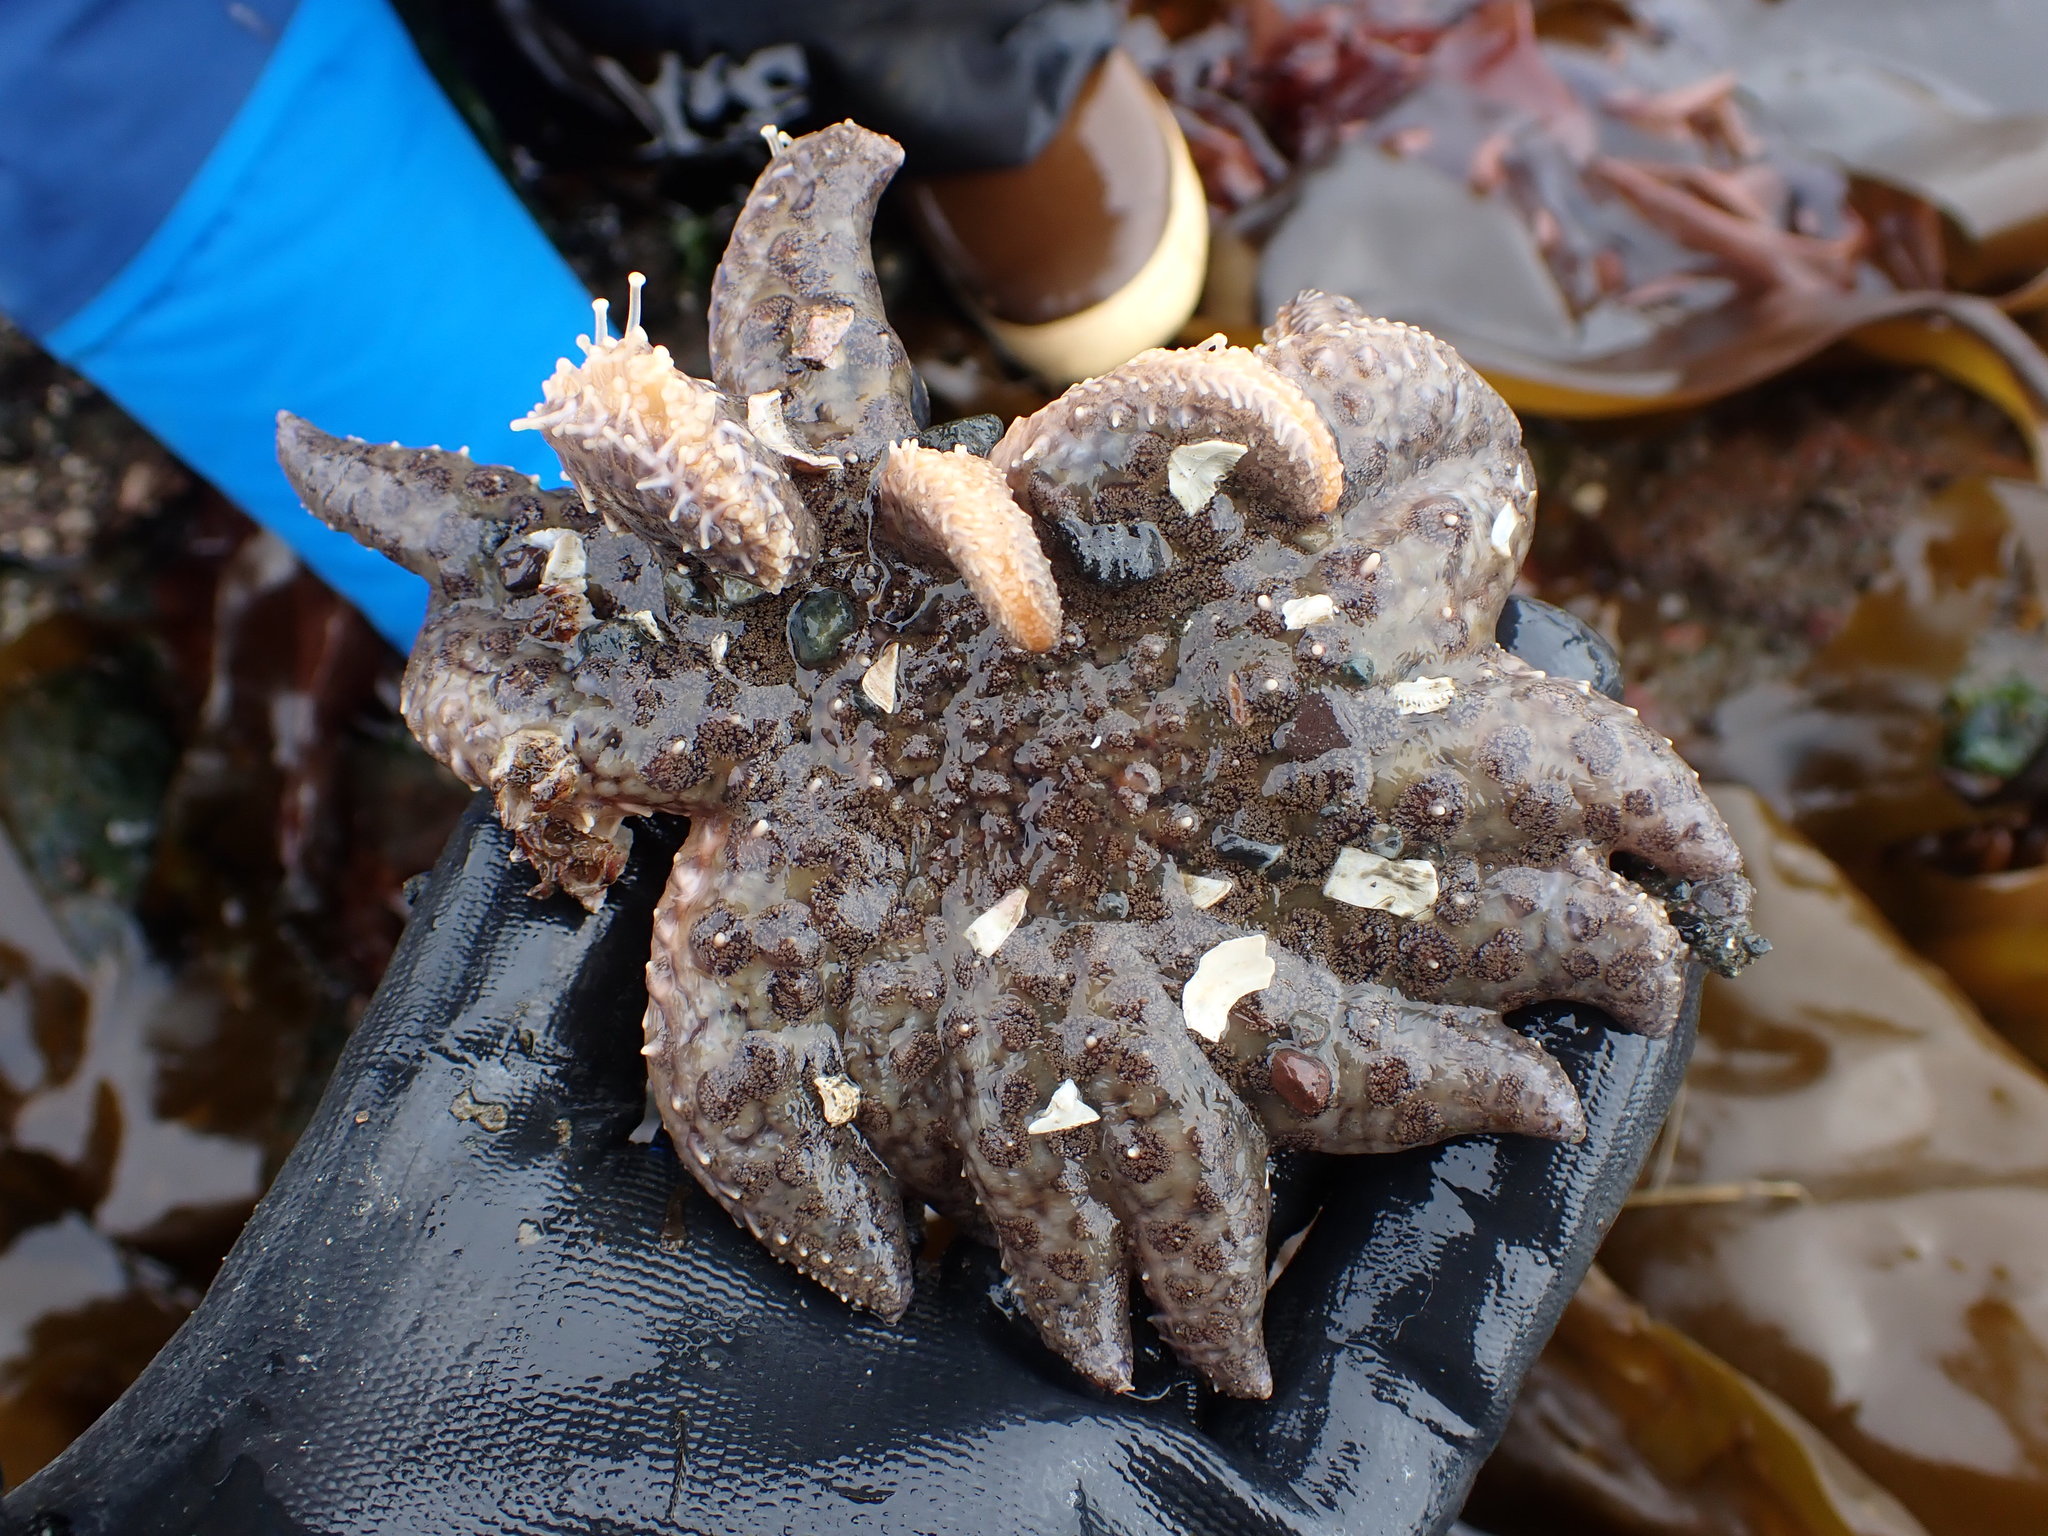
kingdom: Animalia
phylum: Echinodermata
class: Asteroidea
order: Forcipulatida
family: Asteriidae
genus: Pycnopodia
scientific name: Pycnopodia helianthoides
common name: Rag mop
